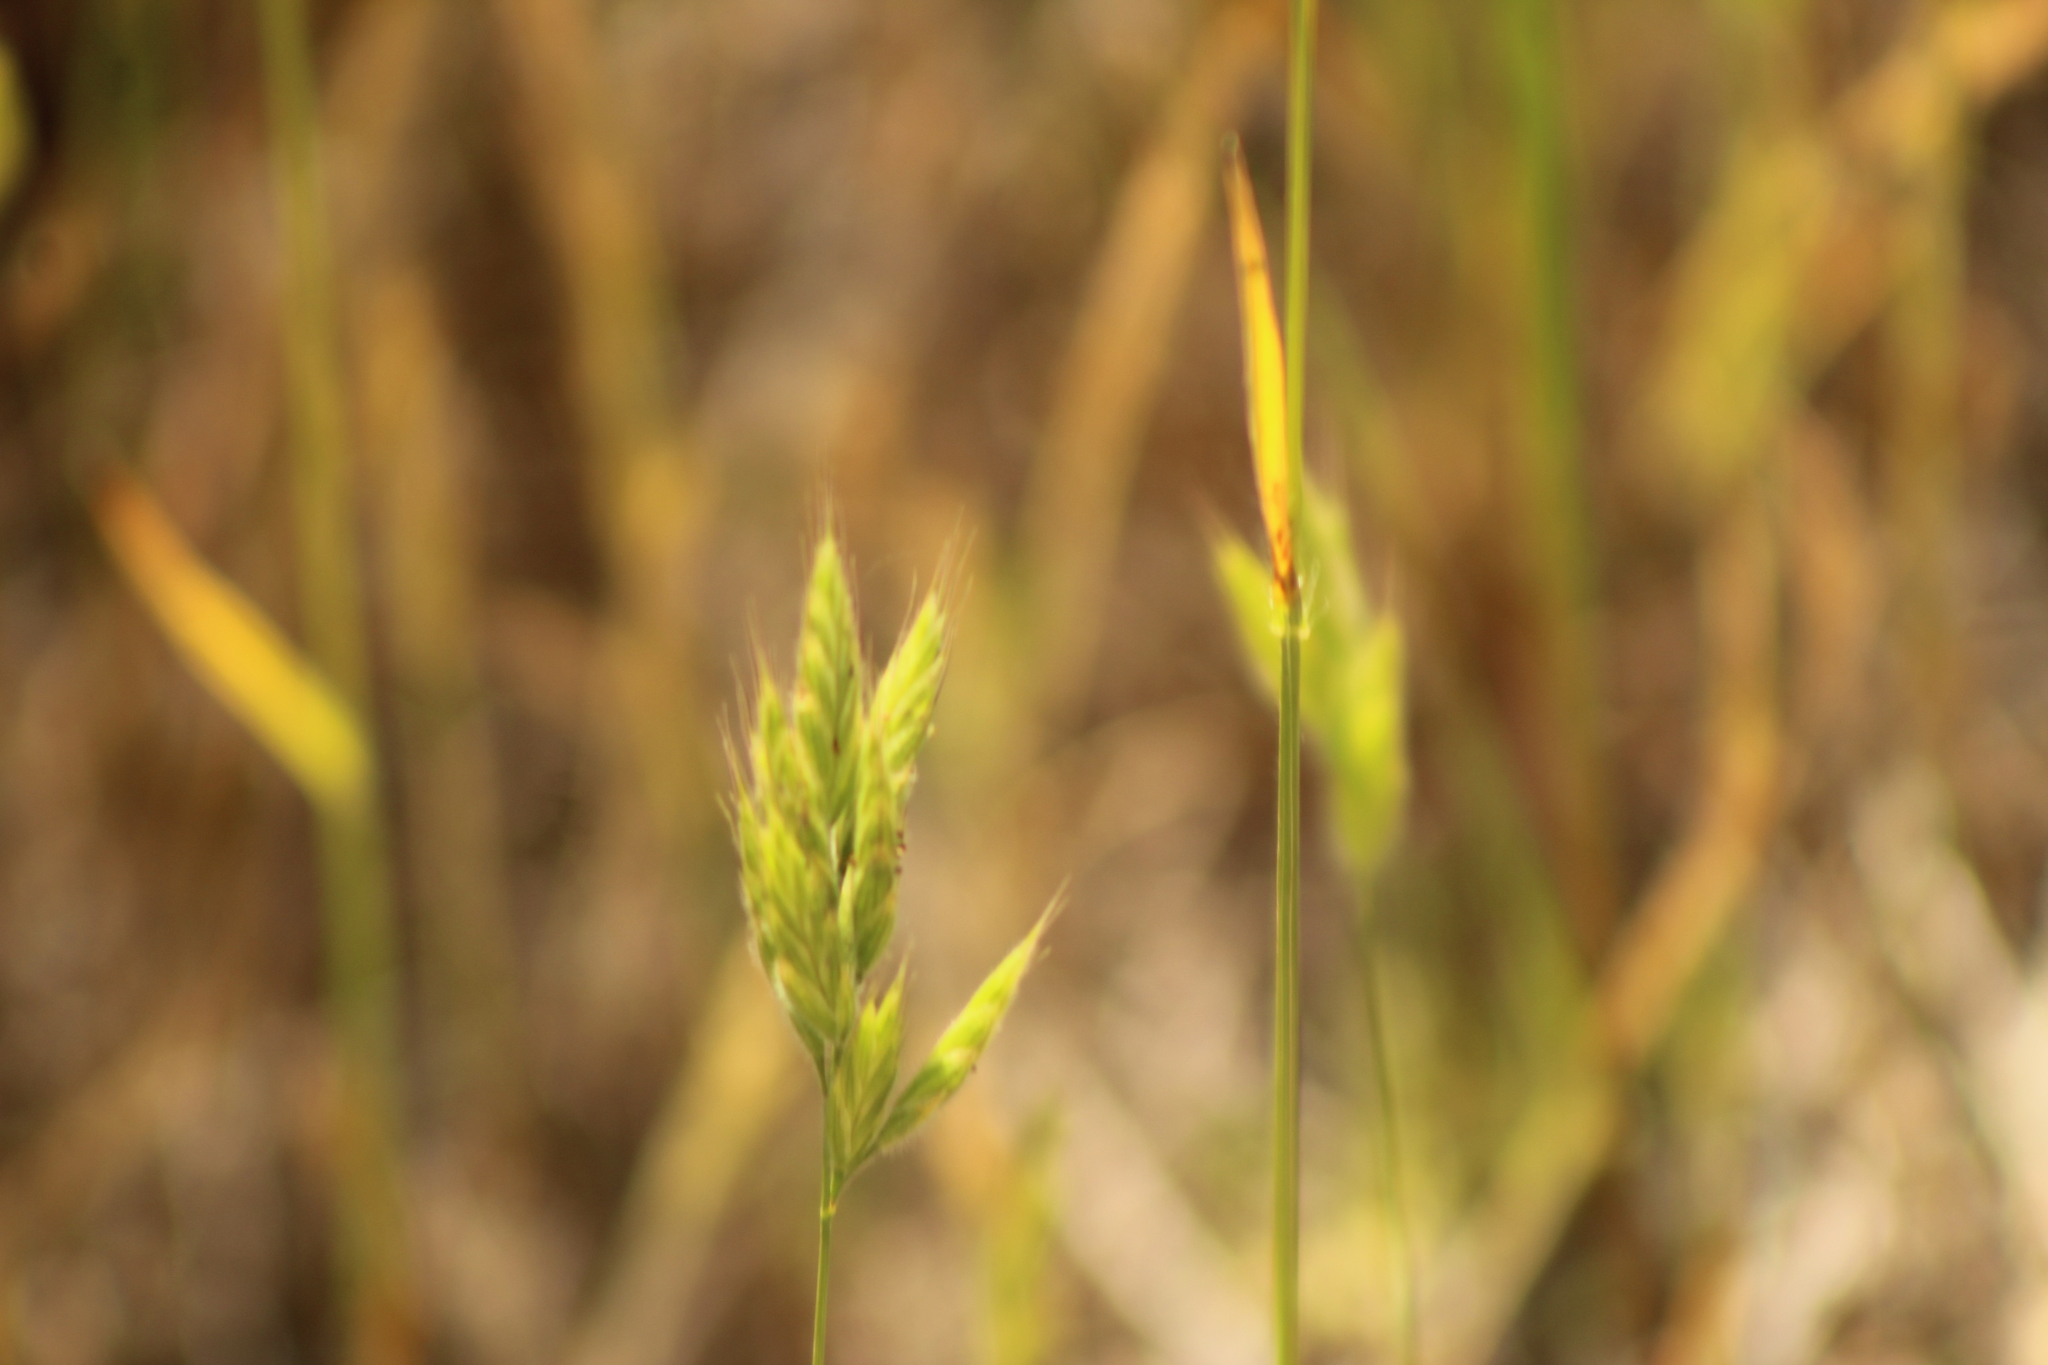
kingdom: Plantae
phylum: Tracheophyta
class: Liliopsida
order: Poales
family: Poaceae
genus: Bromus
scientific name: Bromus hordeaceus
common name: Soft brome
